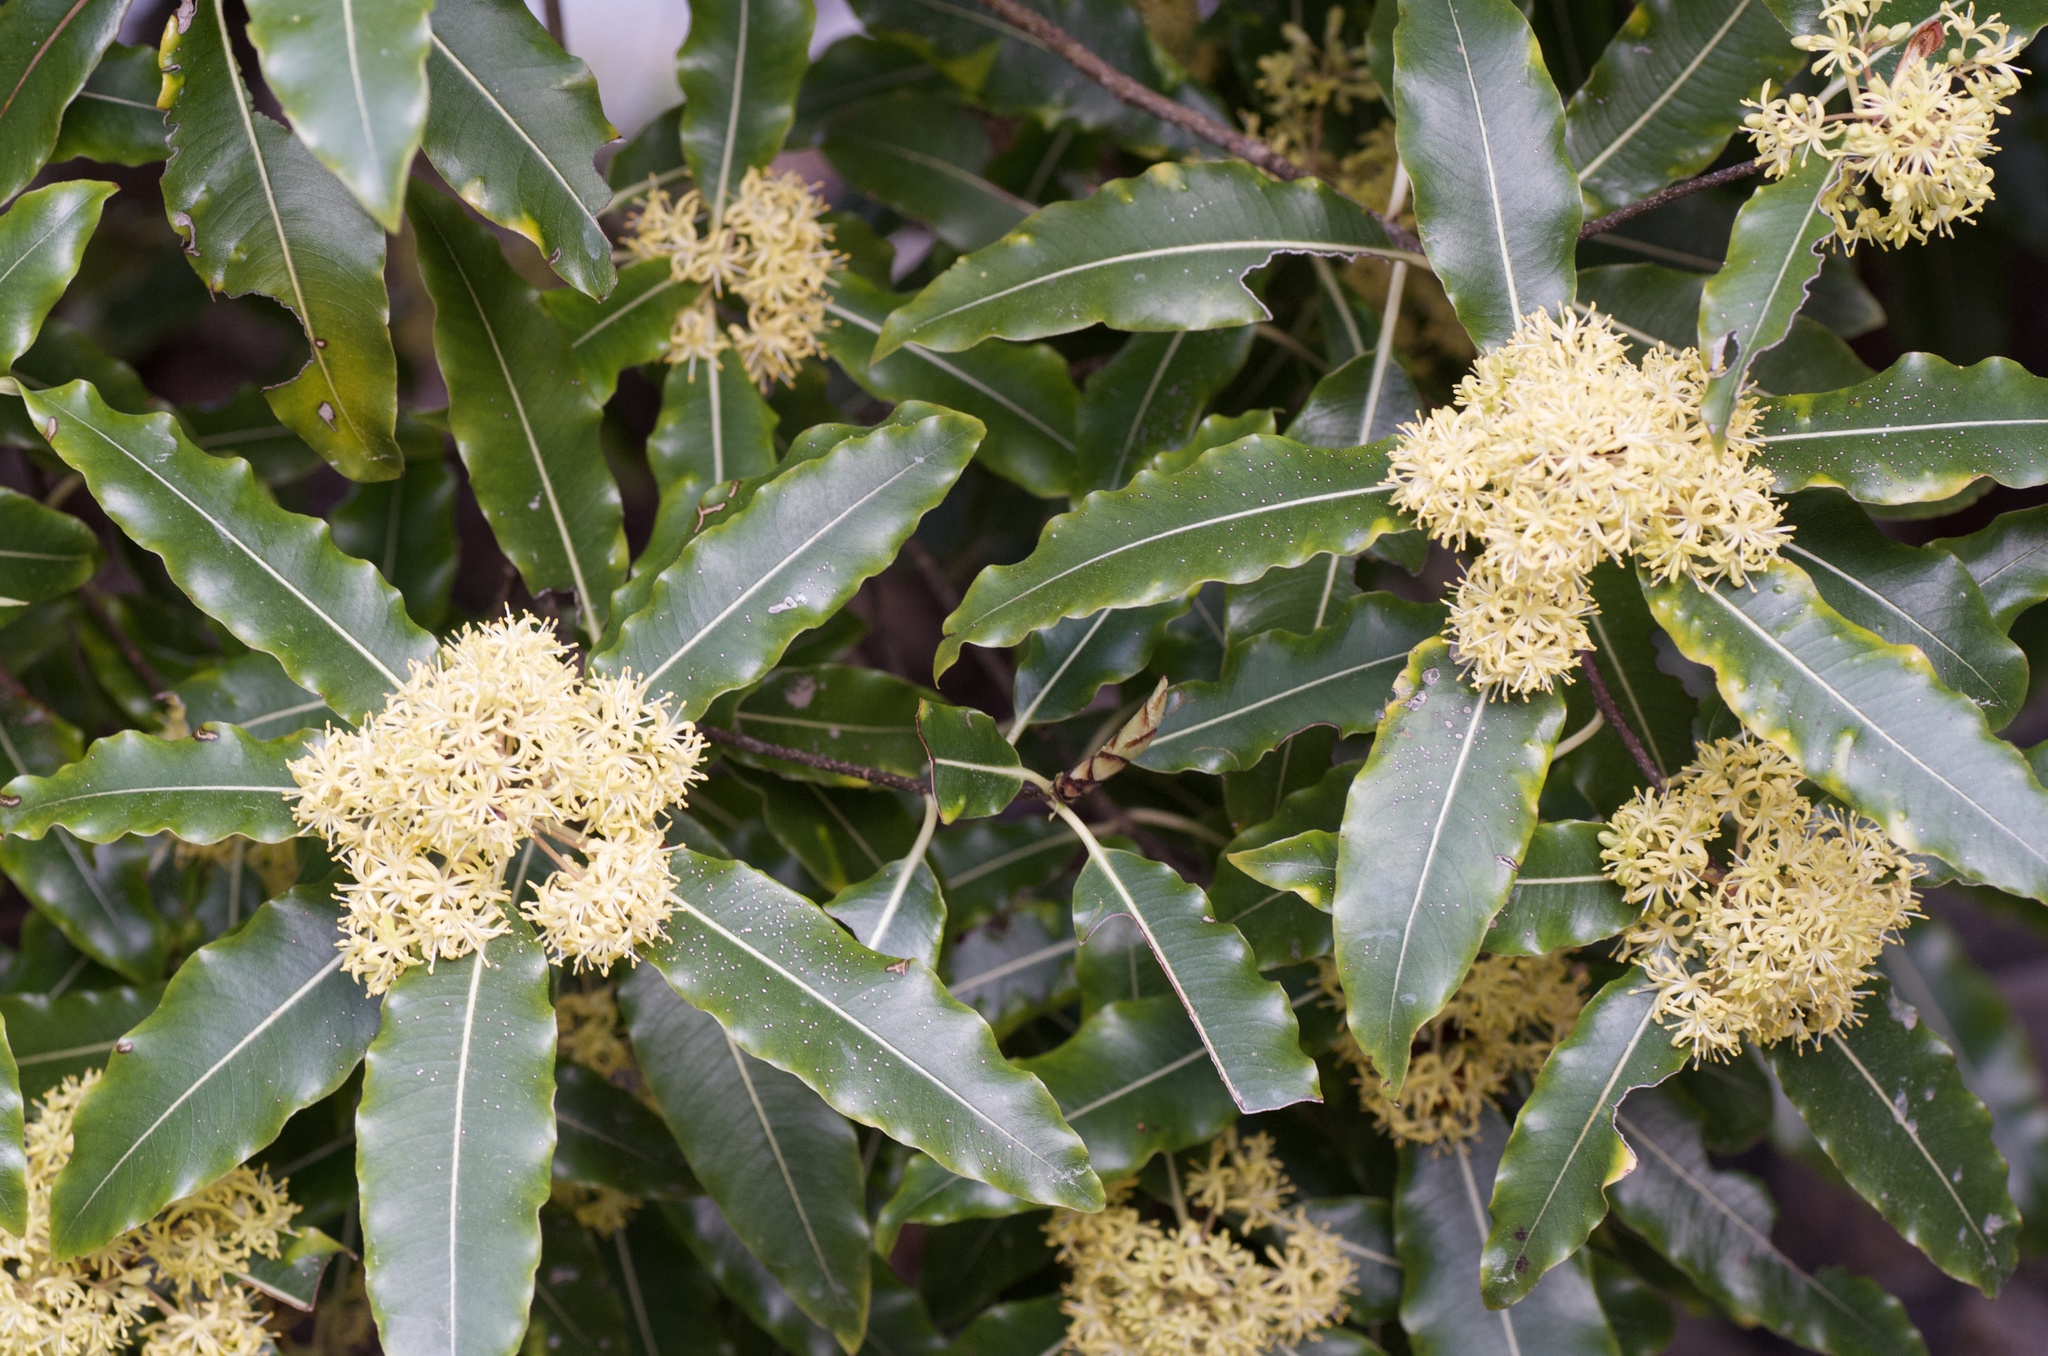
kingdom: Plantae
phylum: Tracheophyta
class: Magnoliopsida
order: Apiales
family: Pittosporaceae
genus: Pittosporum
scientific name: Pittosporum eugenioides
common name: Lemonwood
